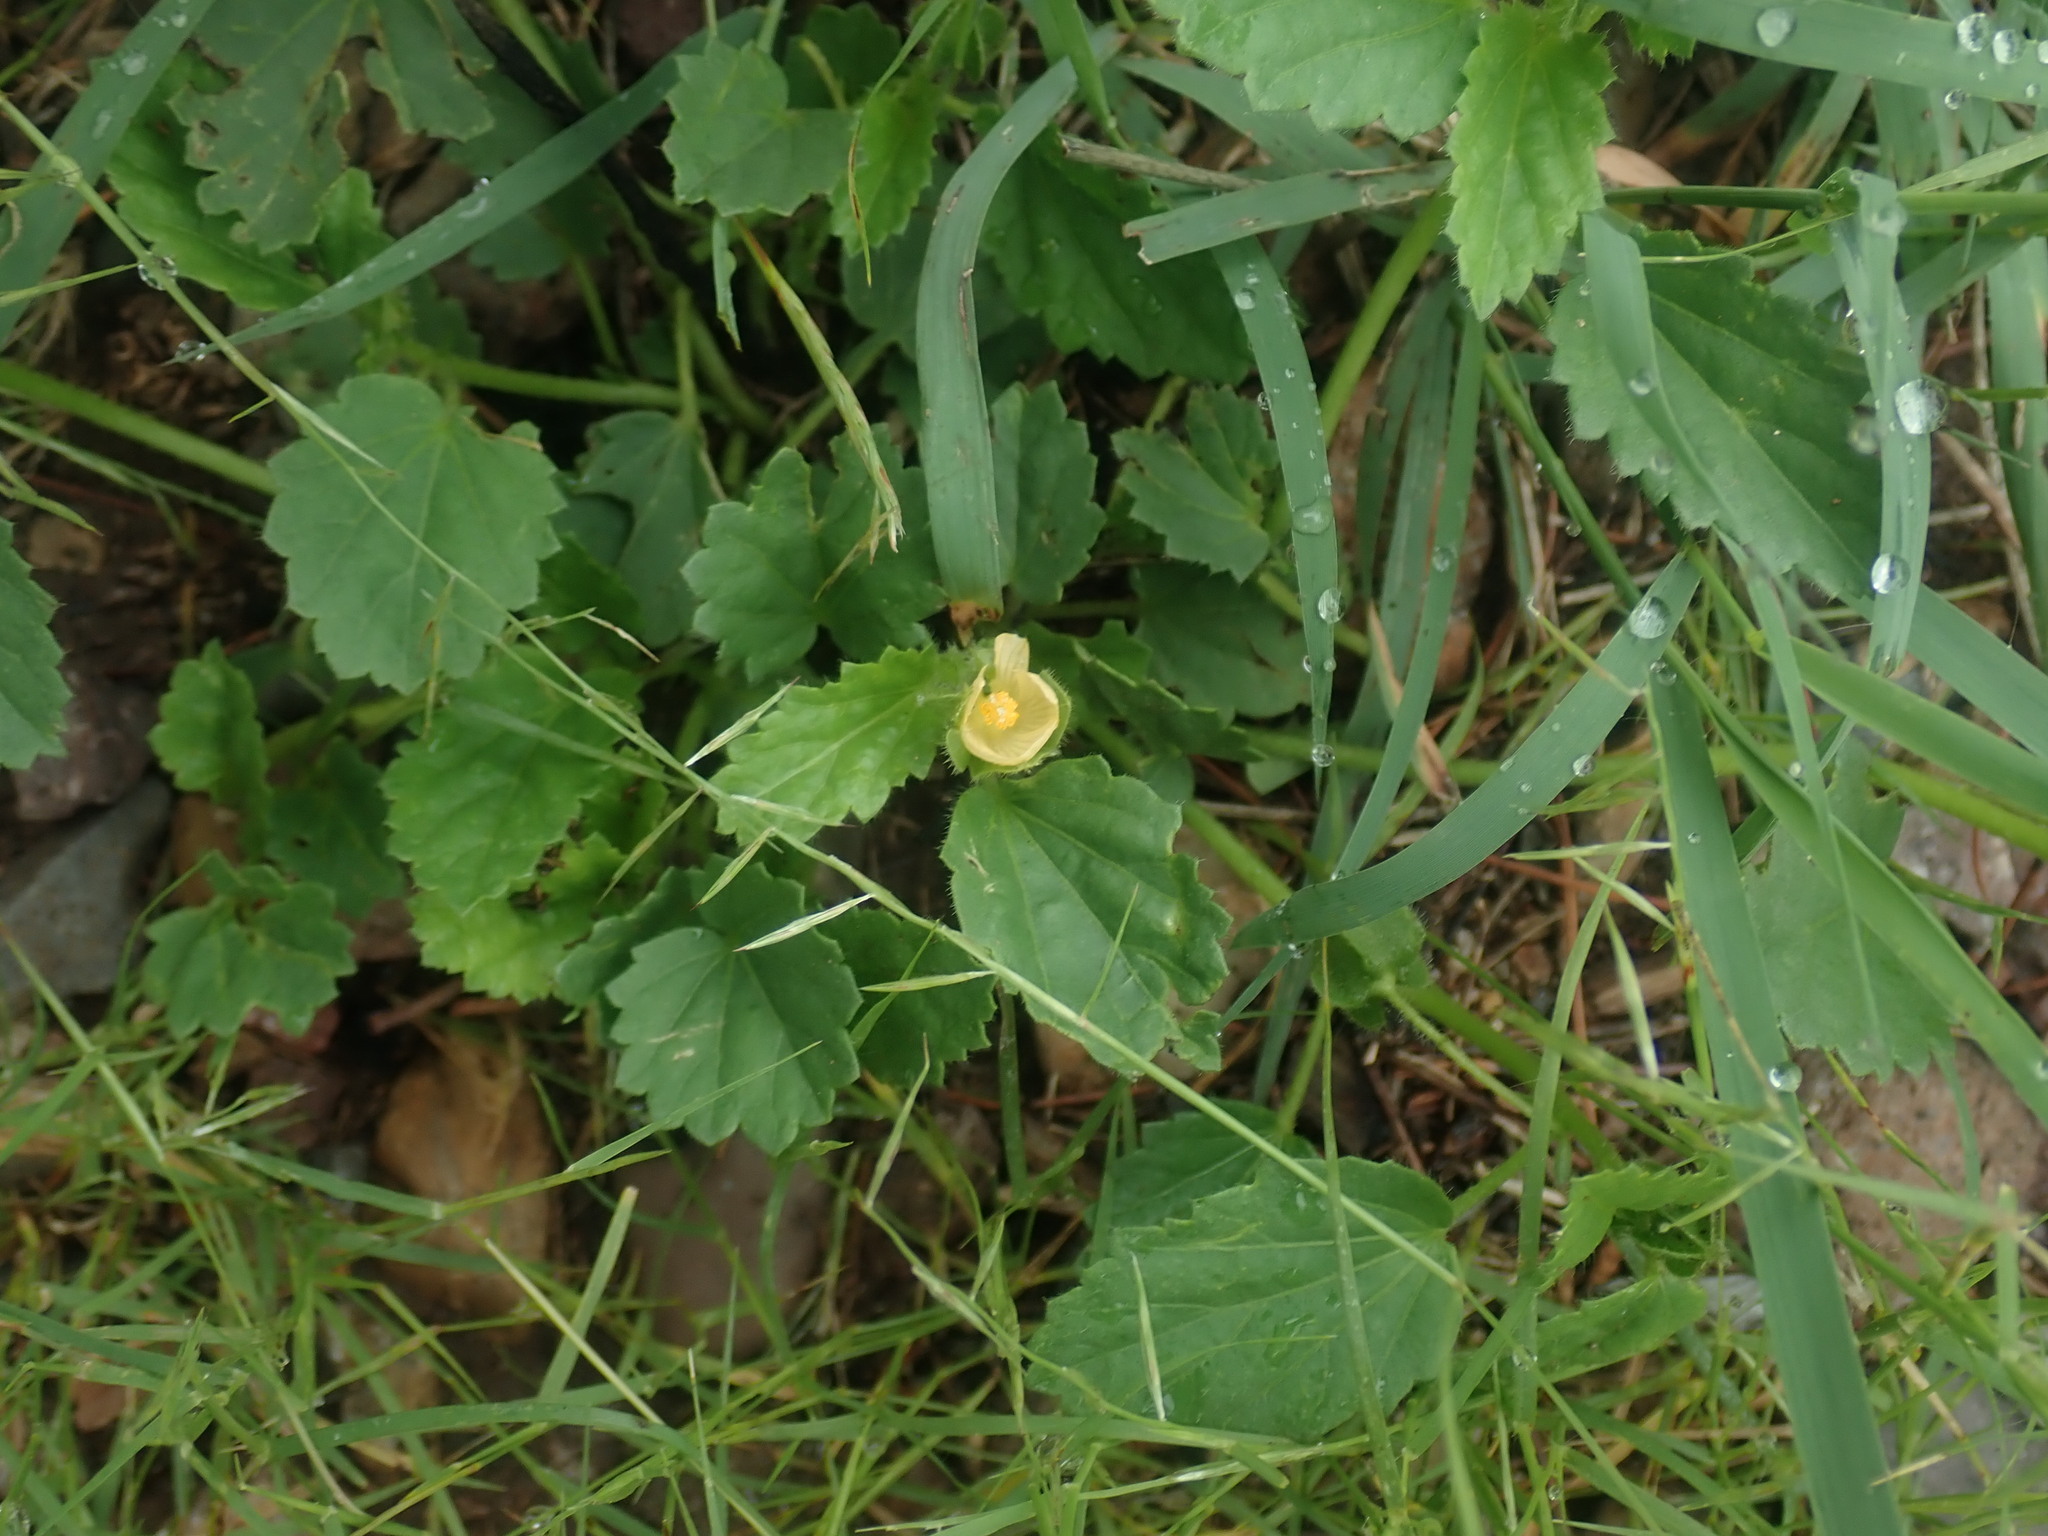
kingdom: Plantae
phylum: Tracheophyta
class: Magnoliopsida
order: Malvales
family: Malvaceae
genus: Rhynchosida
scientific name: Rhynchosida physocalyx
